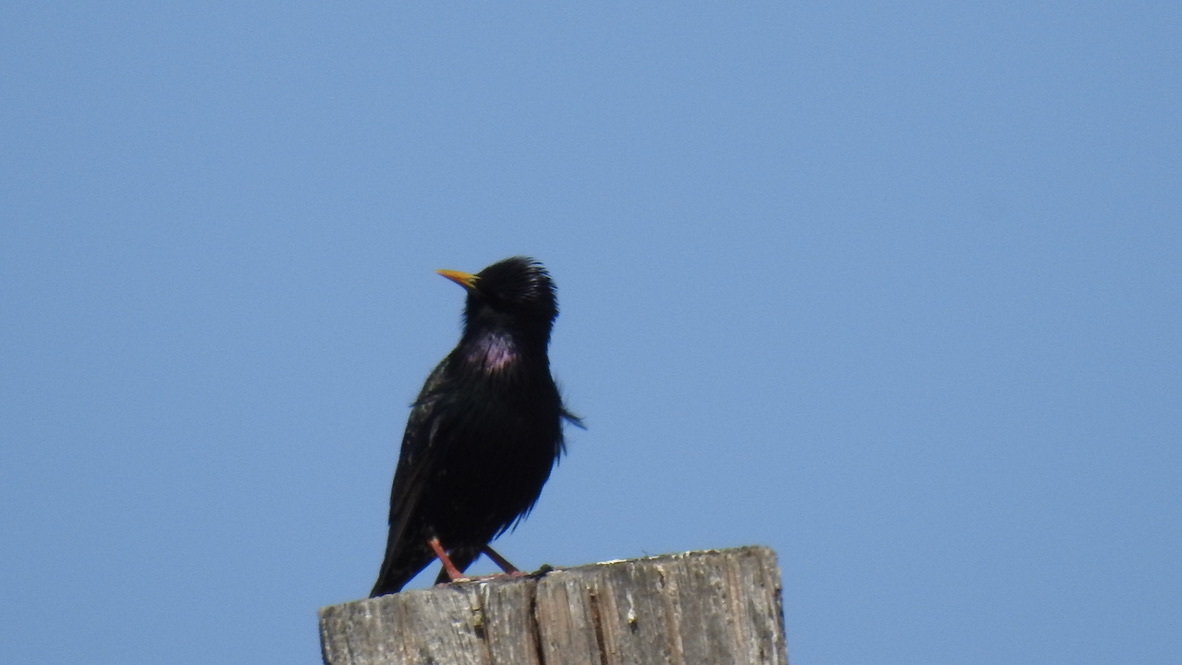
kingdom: Animalia
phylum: Chordata
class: Aves
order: Passeriformes
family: Sturnidae
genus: Sturnus
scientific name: Sturnus vulgaris
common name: Common starling
